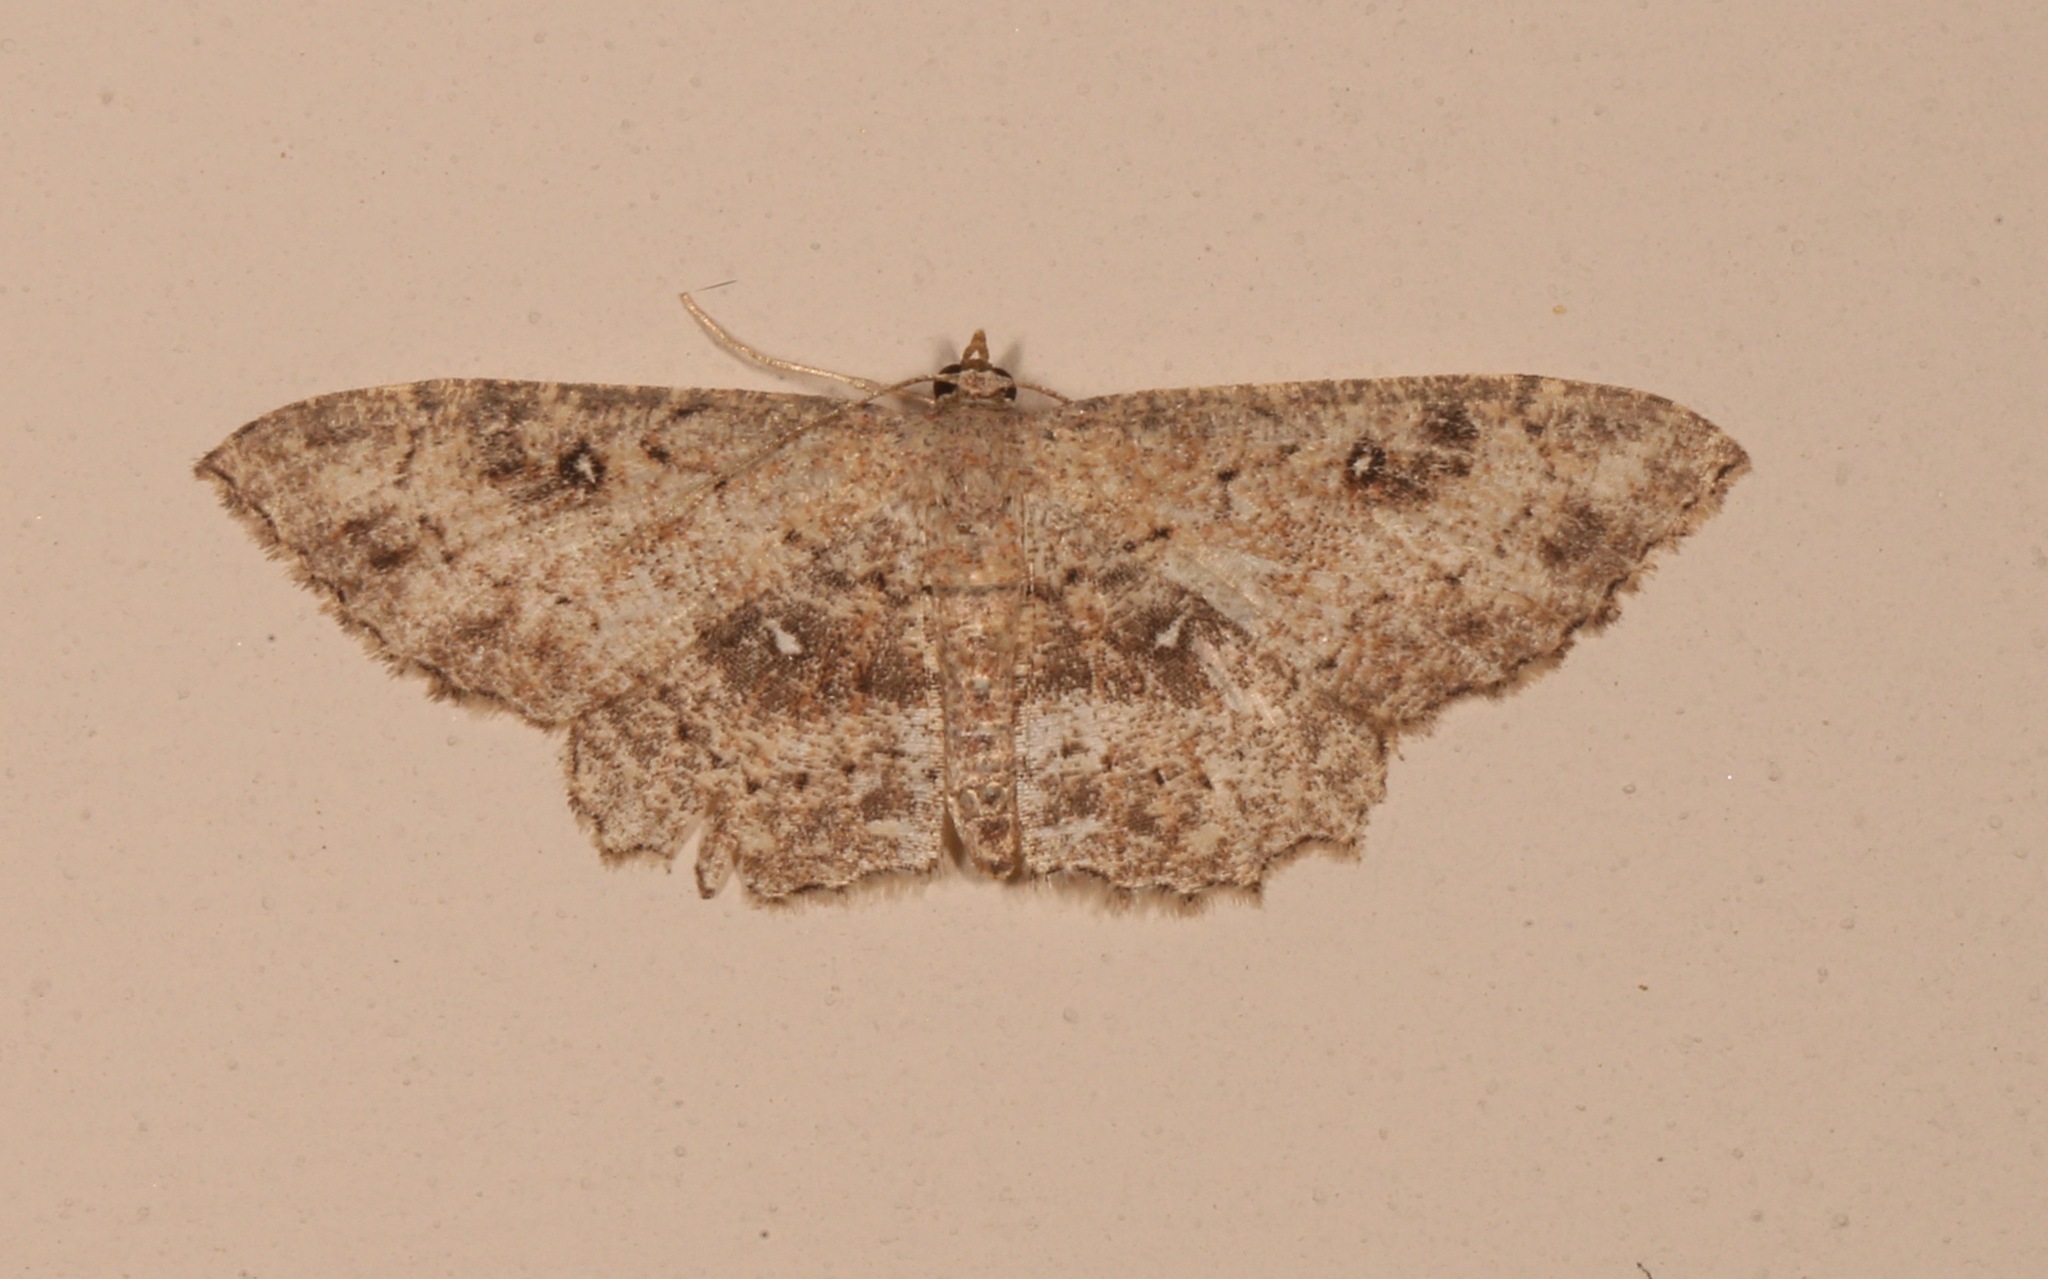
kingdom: Animalia
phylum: Arthropoda
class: Insecta
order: Lepidoptera
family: Geometridae
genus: Cyclophora
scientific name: Cyclophora nanaria
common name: Cankerworm
